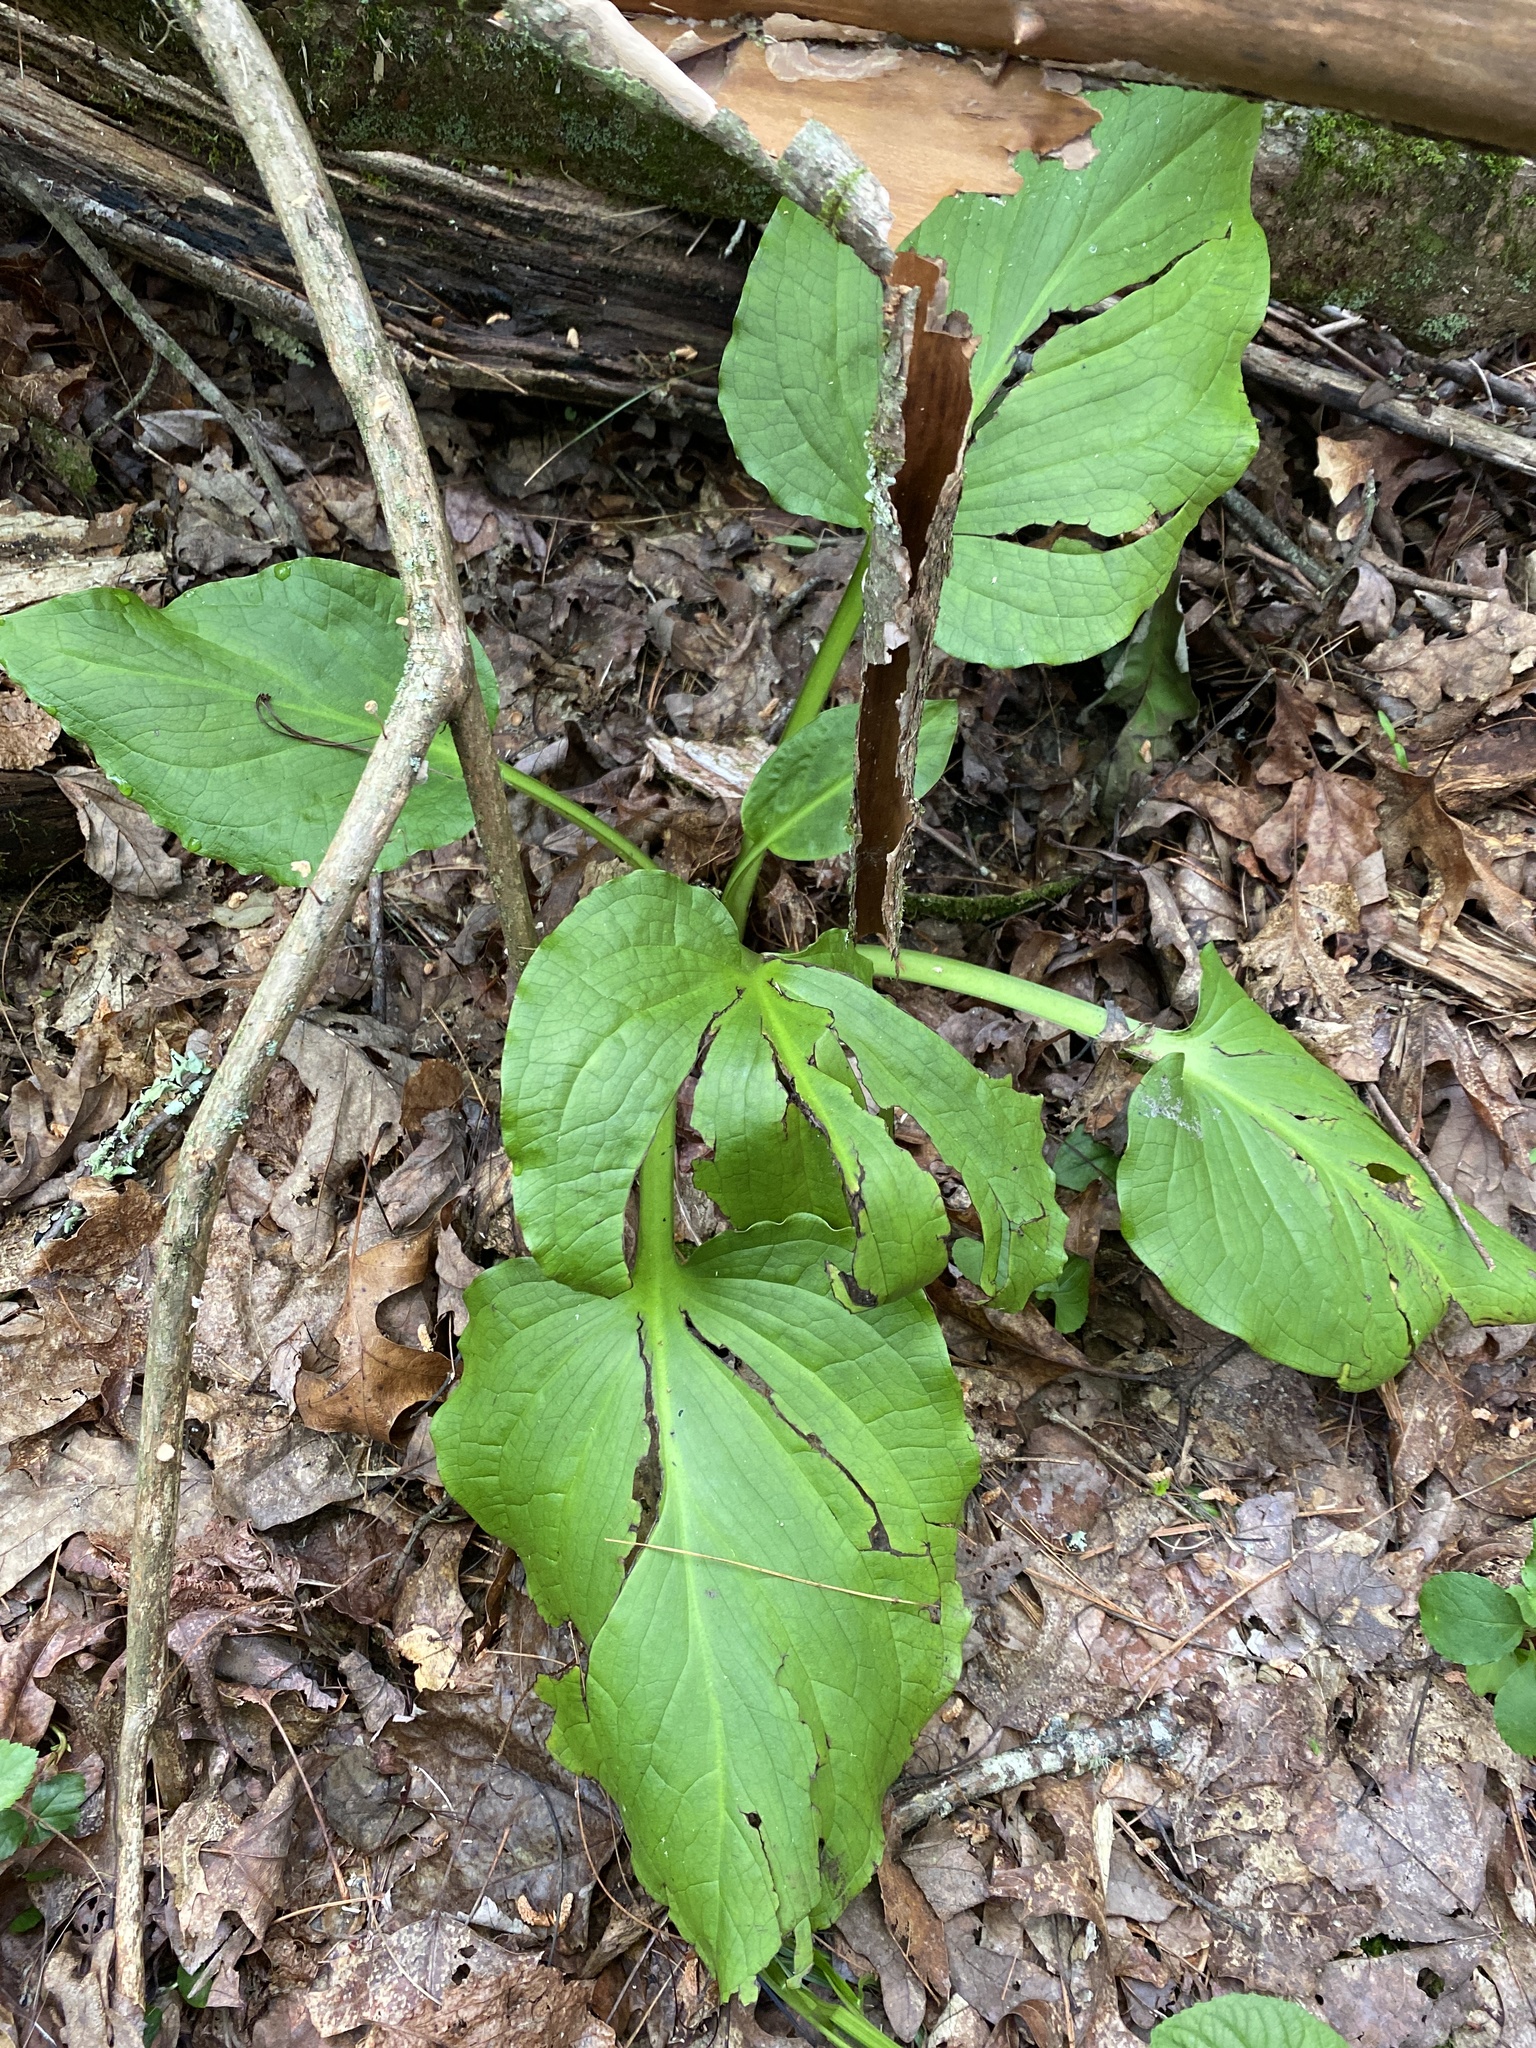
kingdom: Plantae
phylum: Tracheophyta
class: Liliopsida
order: Alismatales
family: Araceae
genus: Symplocarpus
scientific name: Symplocarpus foetidus
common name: Eastern skunk cabbage
